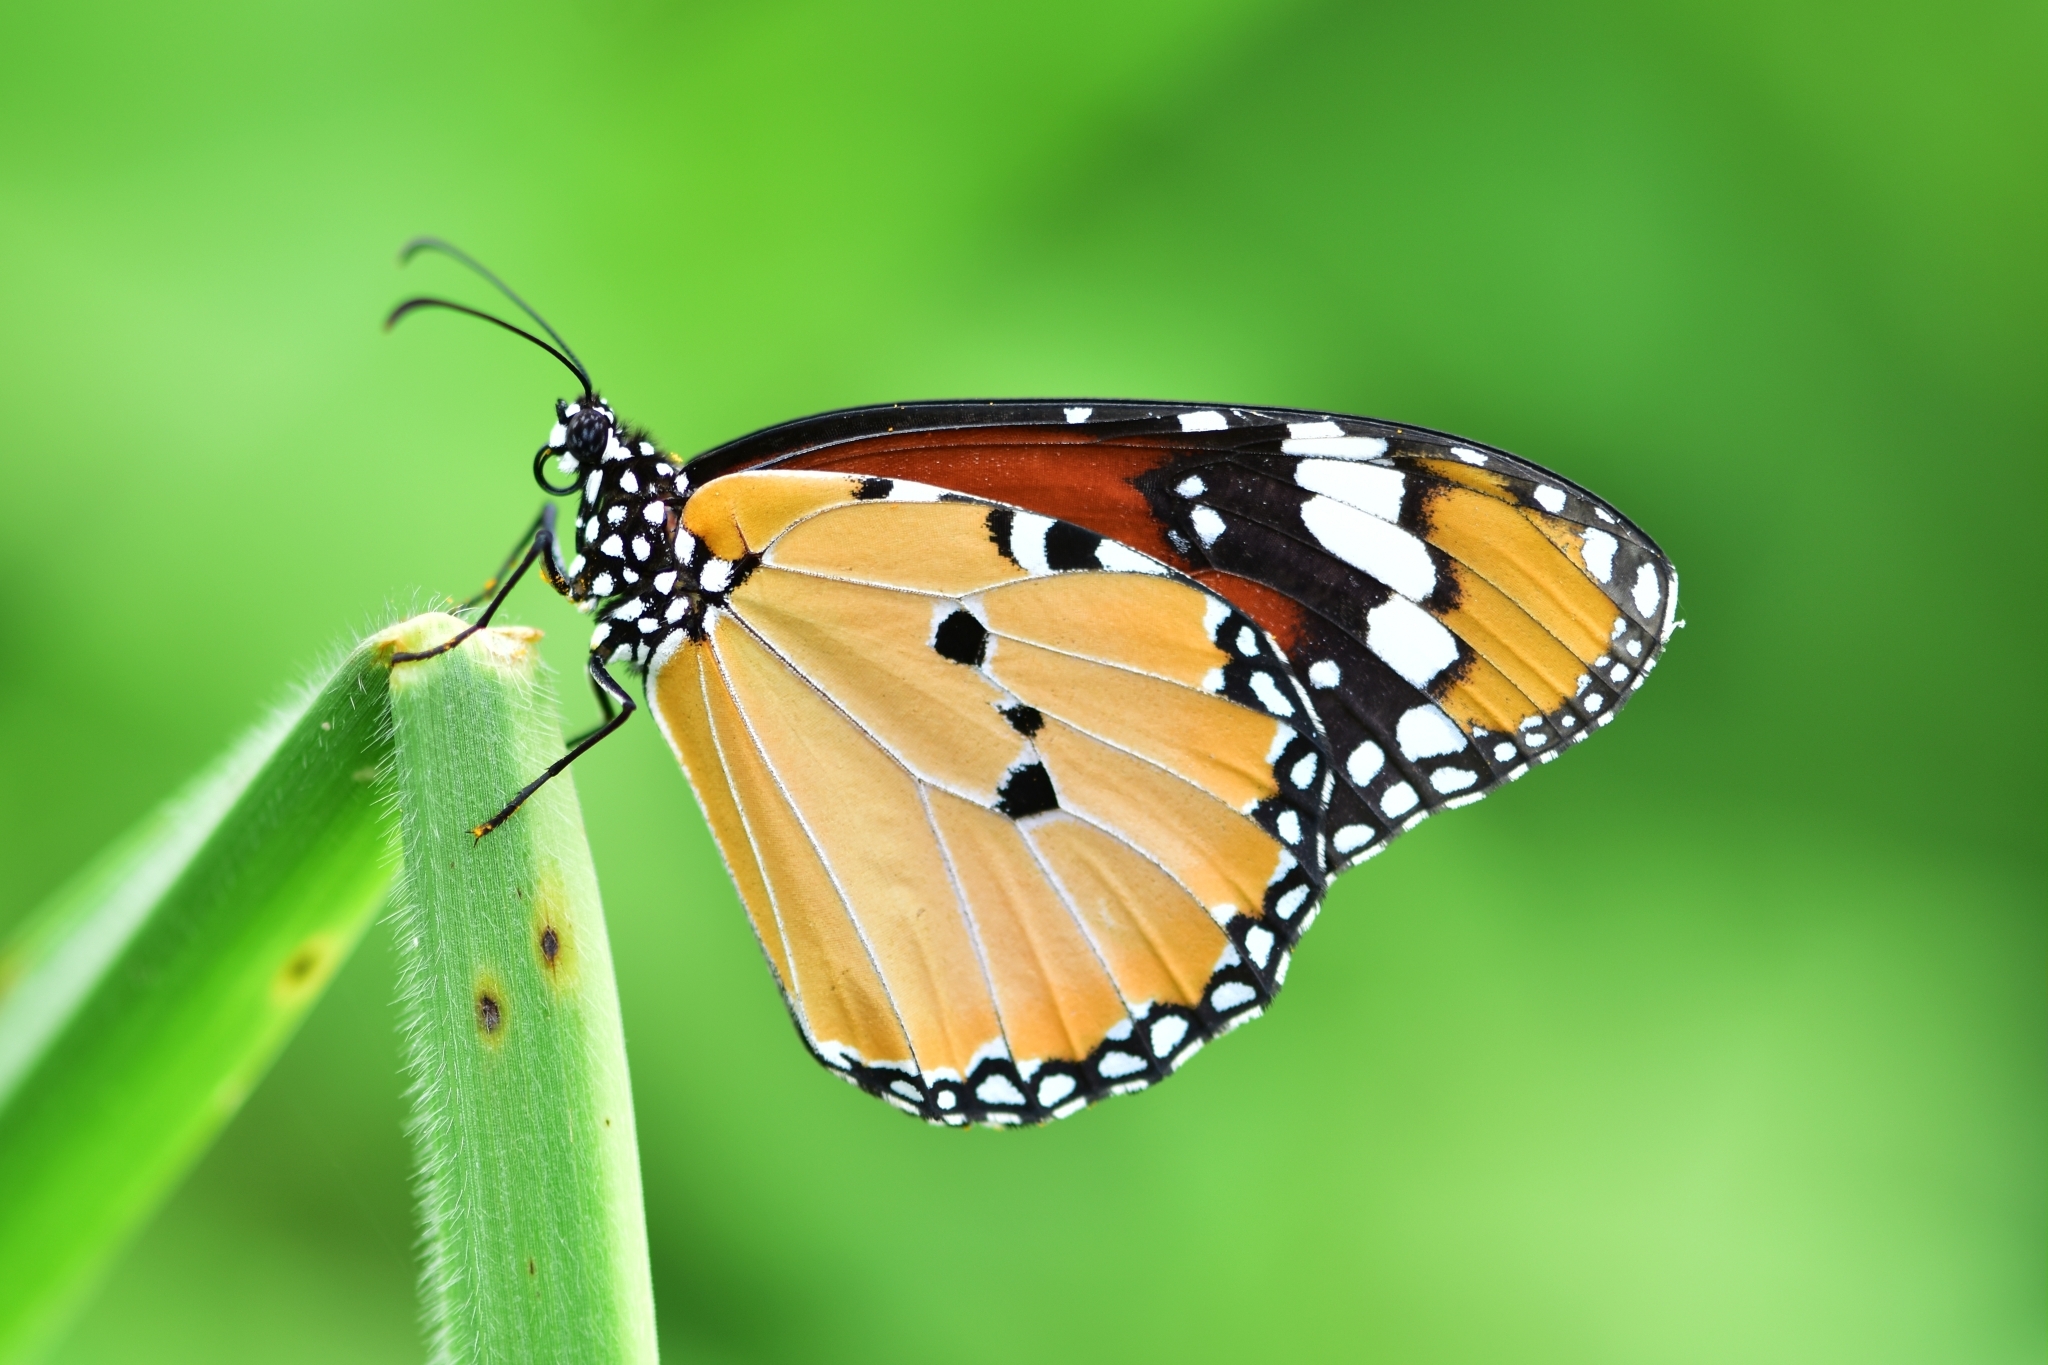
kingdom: Animalia
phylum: Arthropoda
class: Insecta
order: Lepidoptera
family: Nymphalidae
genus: Danaus
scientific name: Danaus chrysippus
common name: Plain tiger
